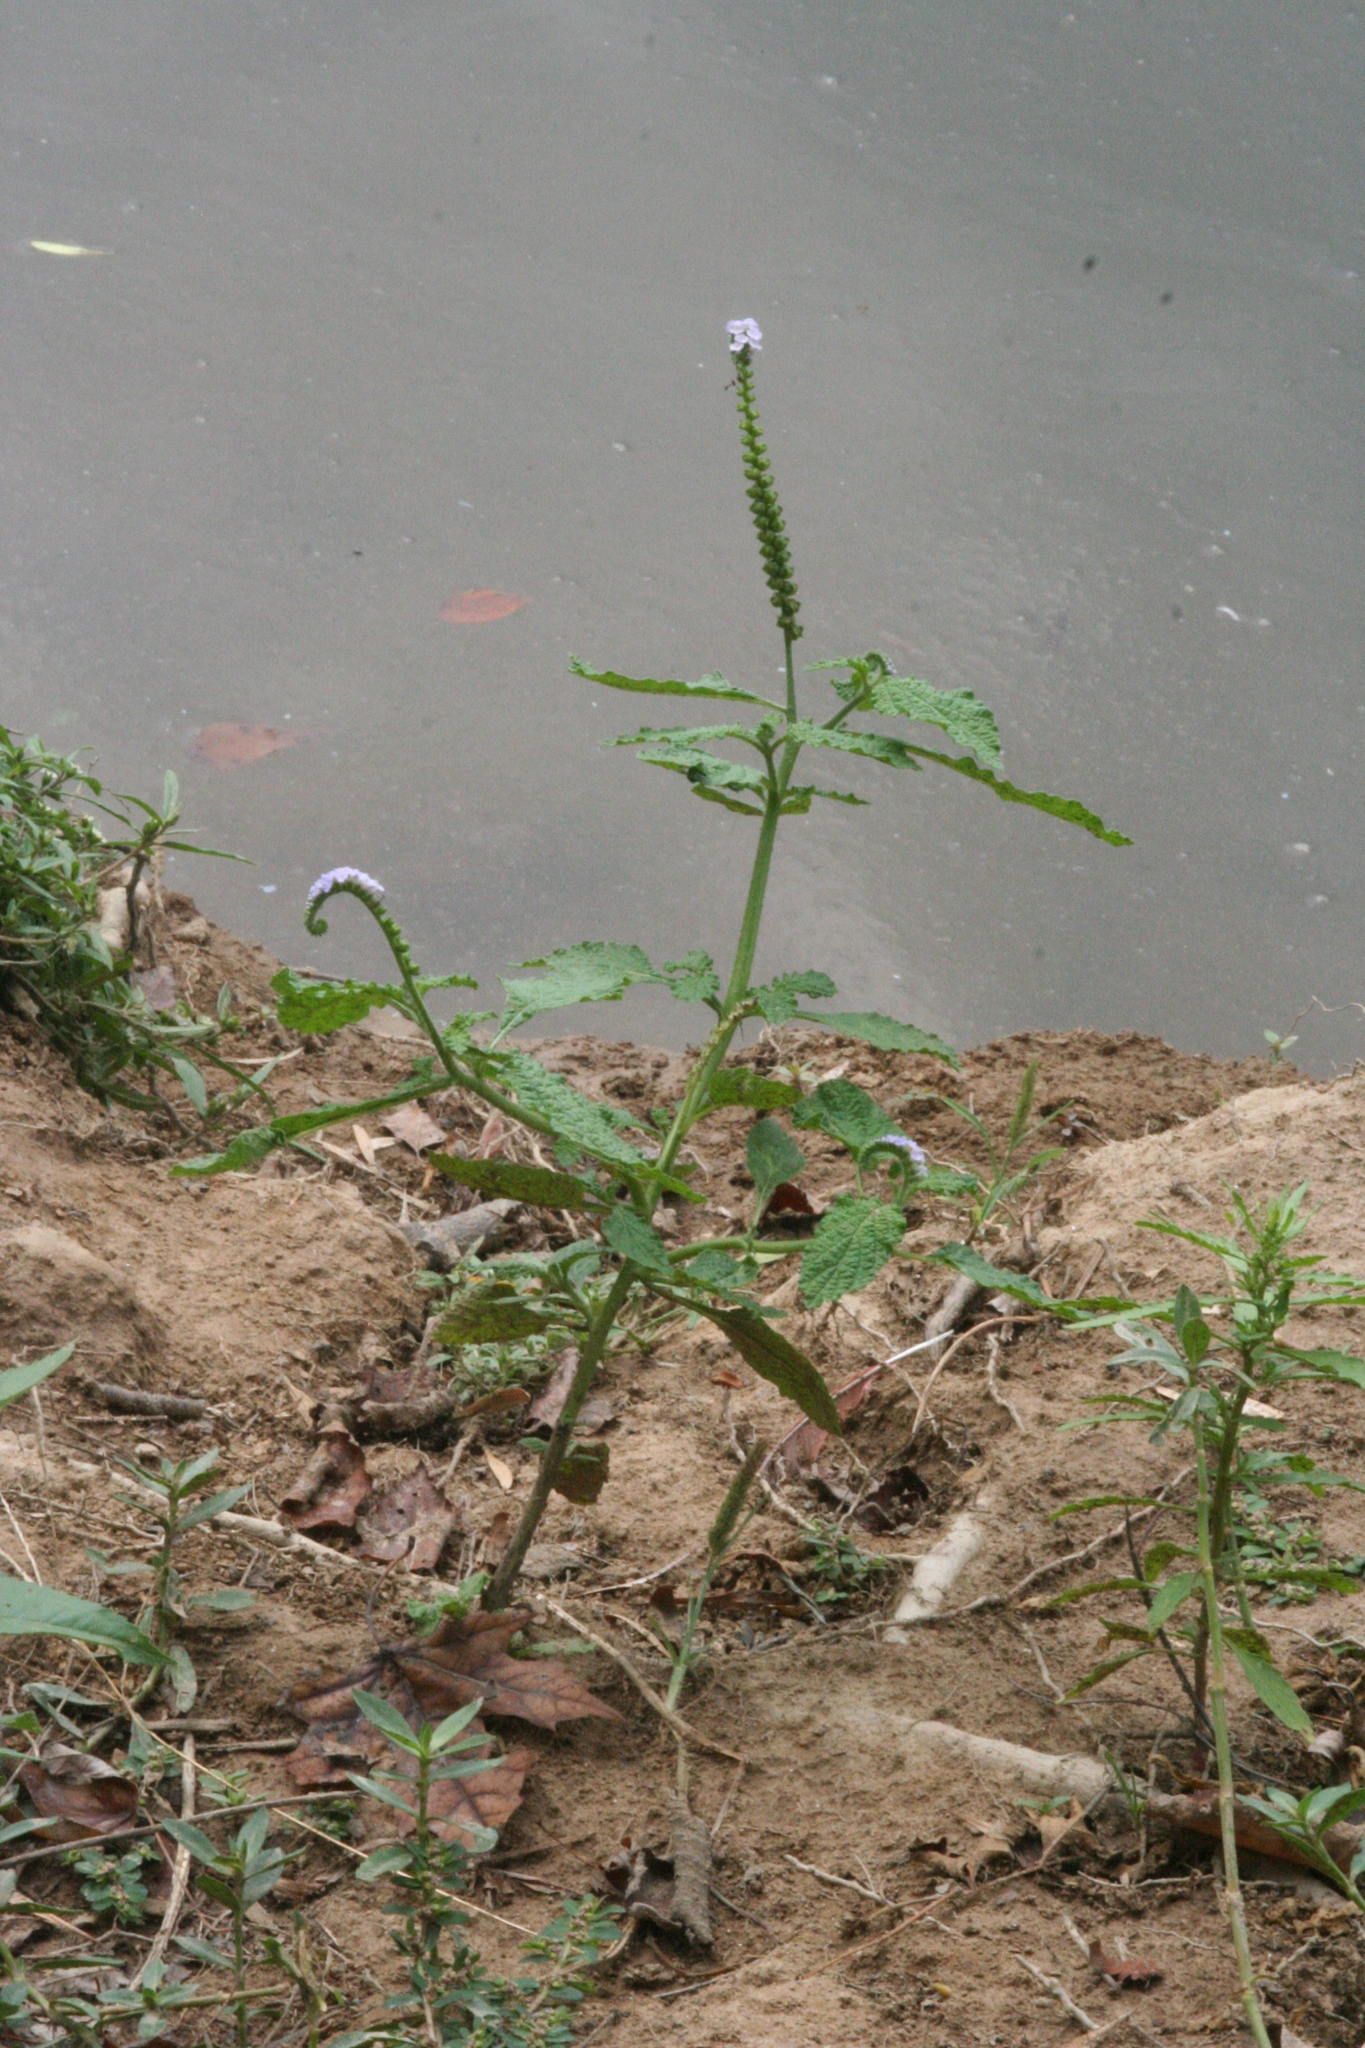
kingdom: Plantae
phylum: Tracheophyta
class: Magnoliopsida
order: Boraginales
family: Heliotropiaceae
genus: Heliotropium
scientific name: Heliotropium indicum
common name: Indian heliotrope
